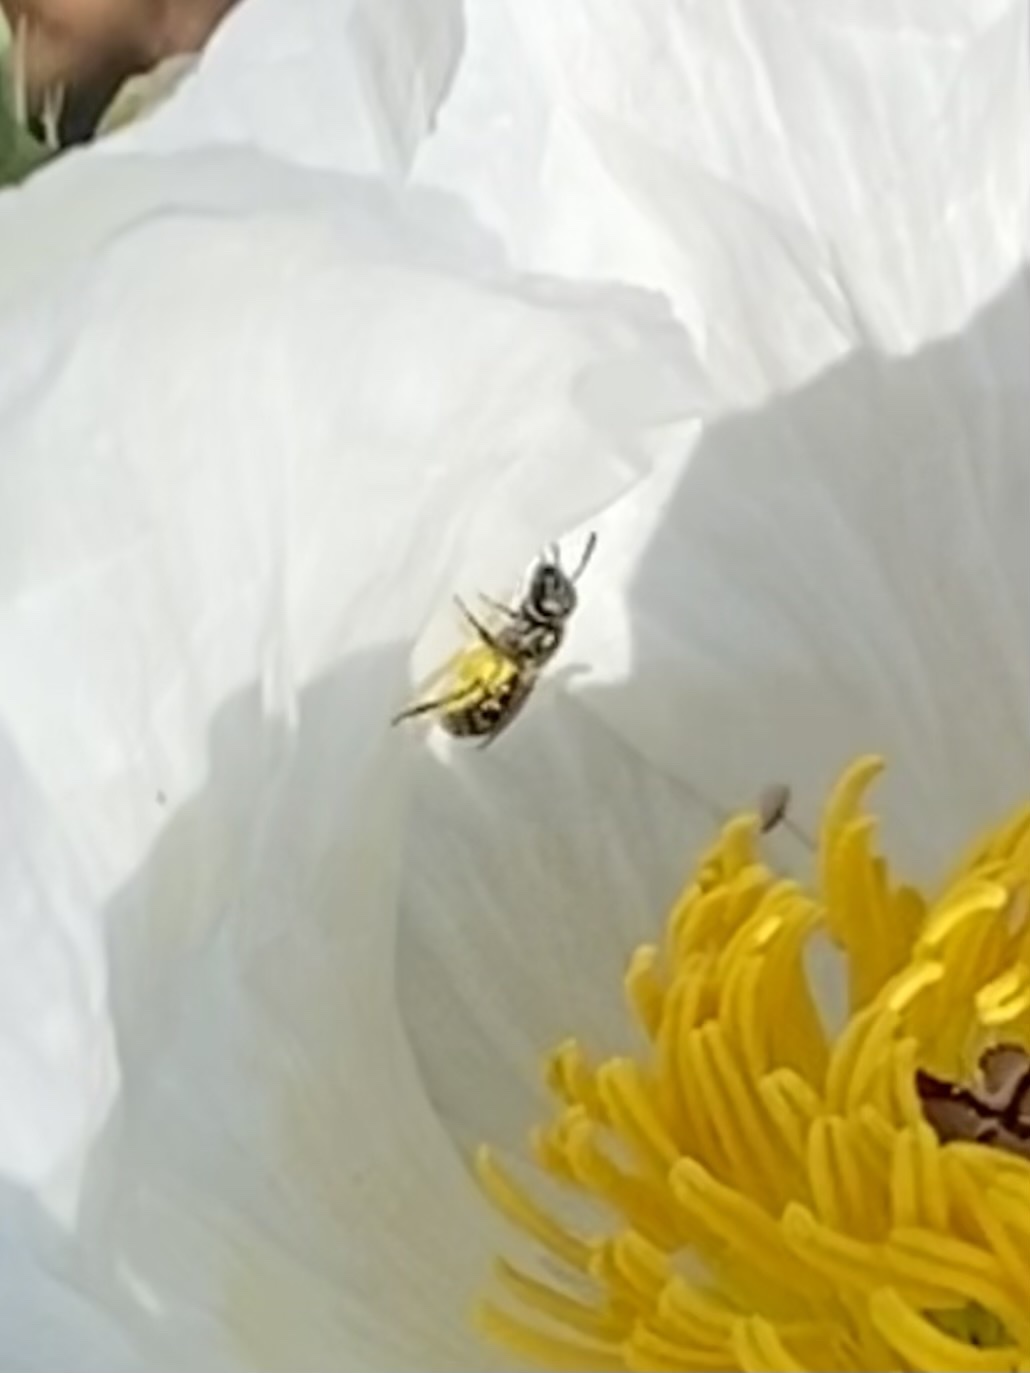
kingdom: Animalia
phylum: Arthropoda
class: Insecta
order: Hymenoptera
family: Halictidae
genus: Dialictus
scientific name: Dialictus
